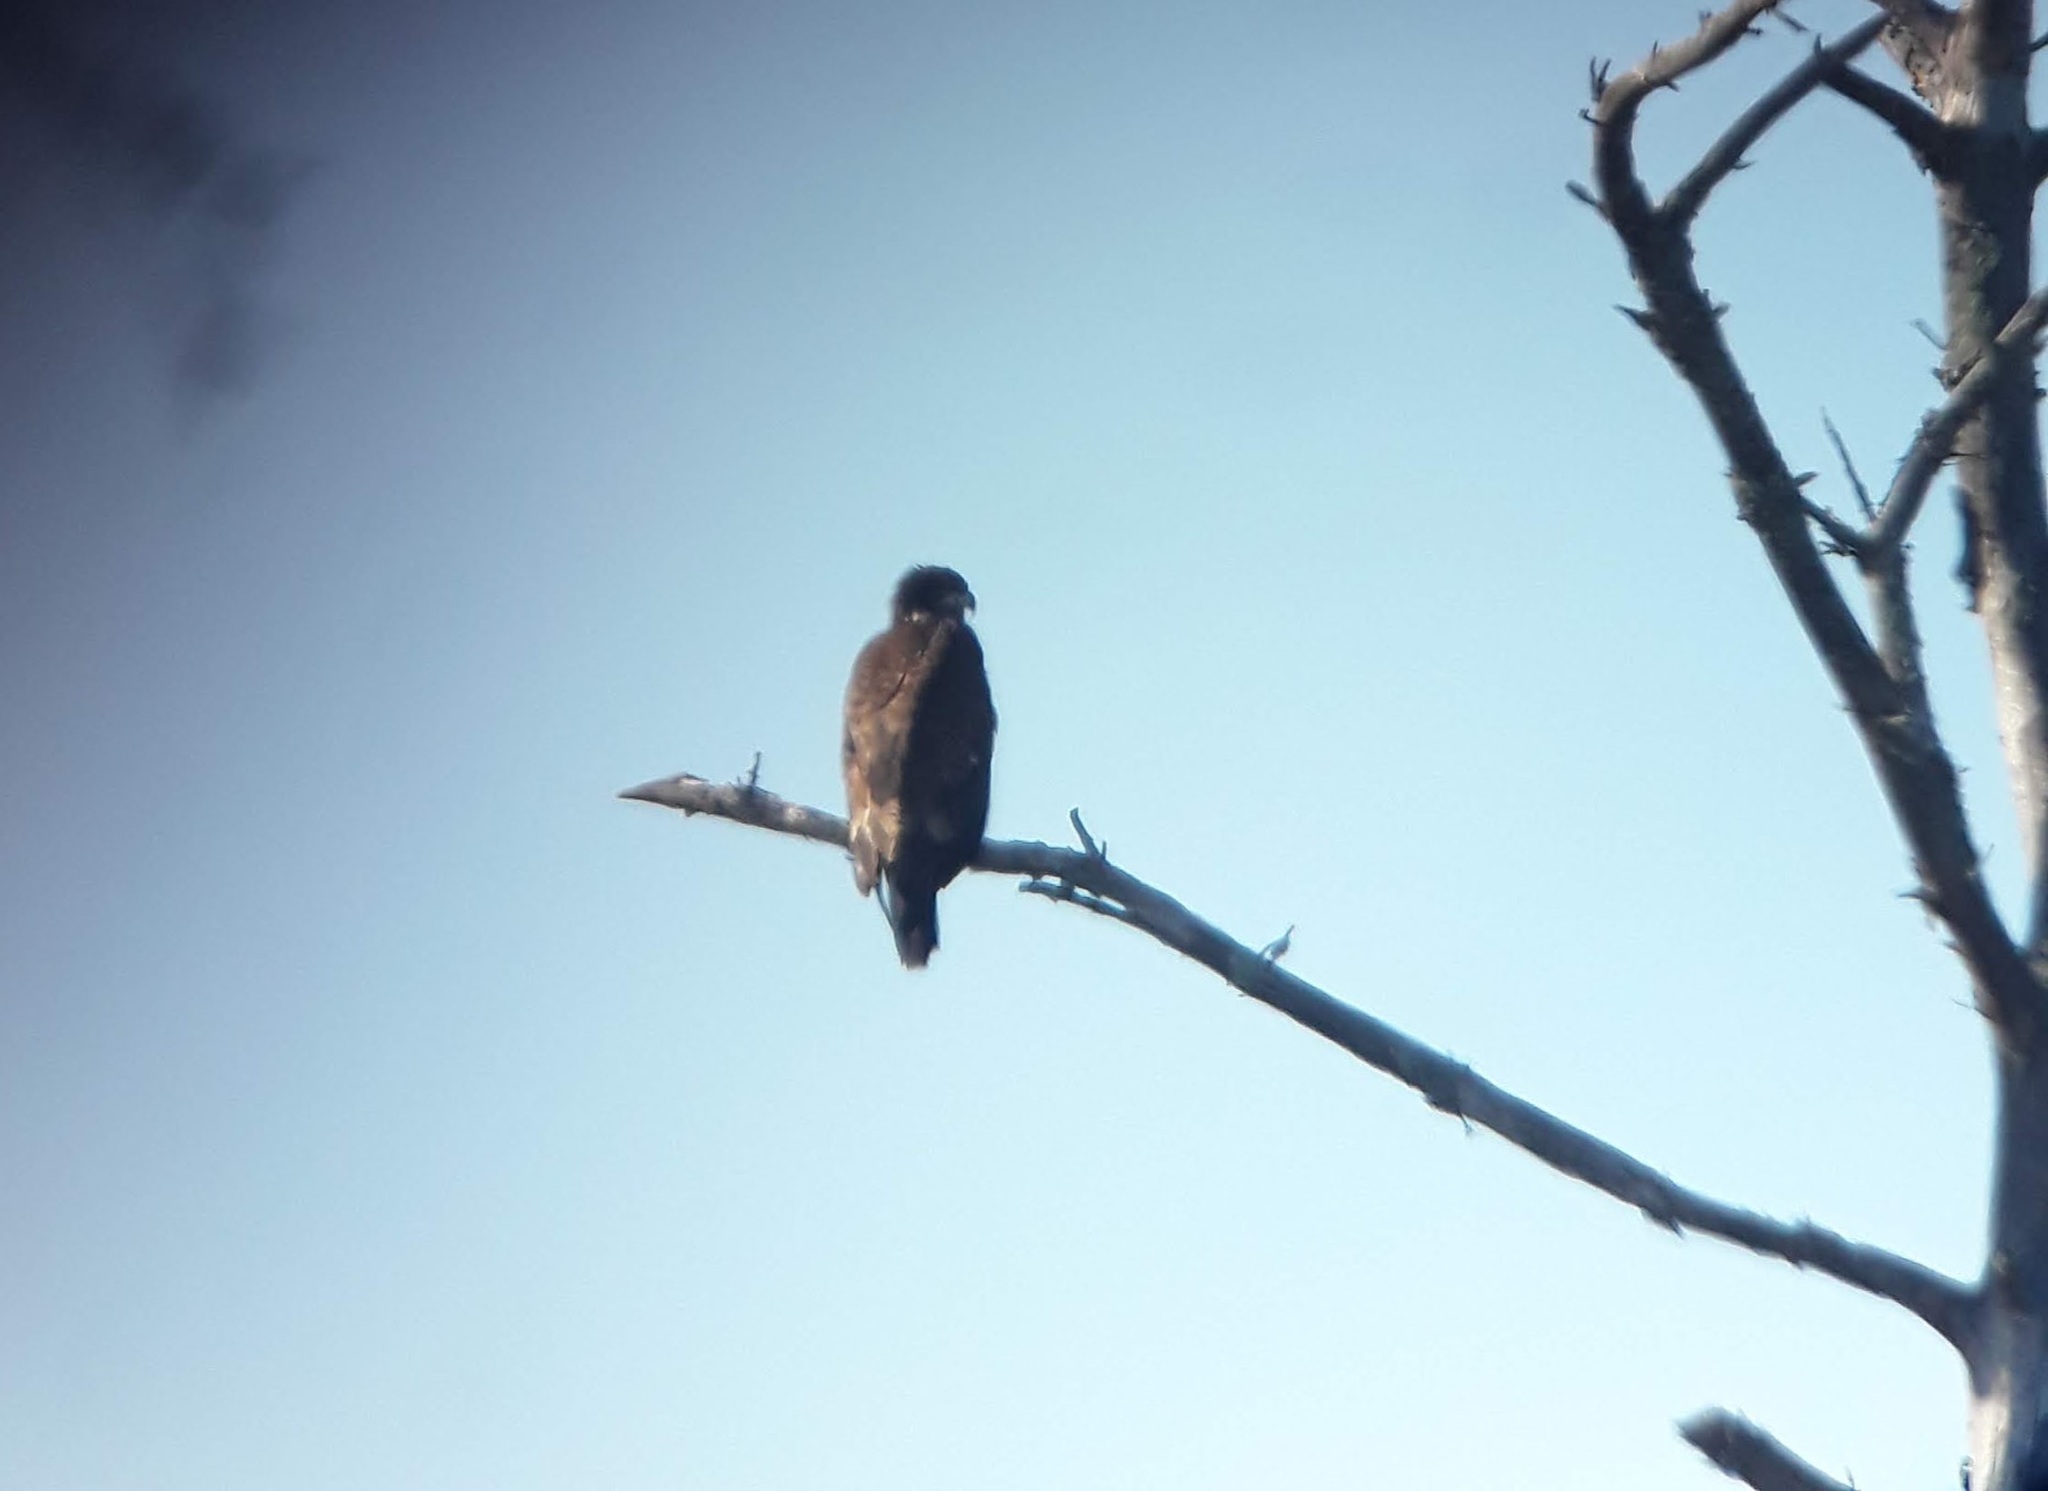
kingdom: Animalia
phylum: Chordata
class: Aves
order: Accipitriformes
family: Accipitridae
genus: Haliaeetus
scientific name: Haliaeetus leucocephalus
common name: Bald eagle
